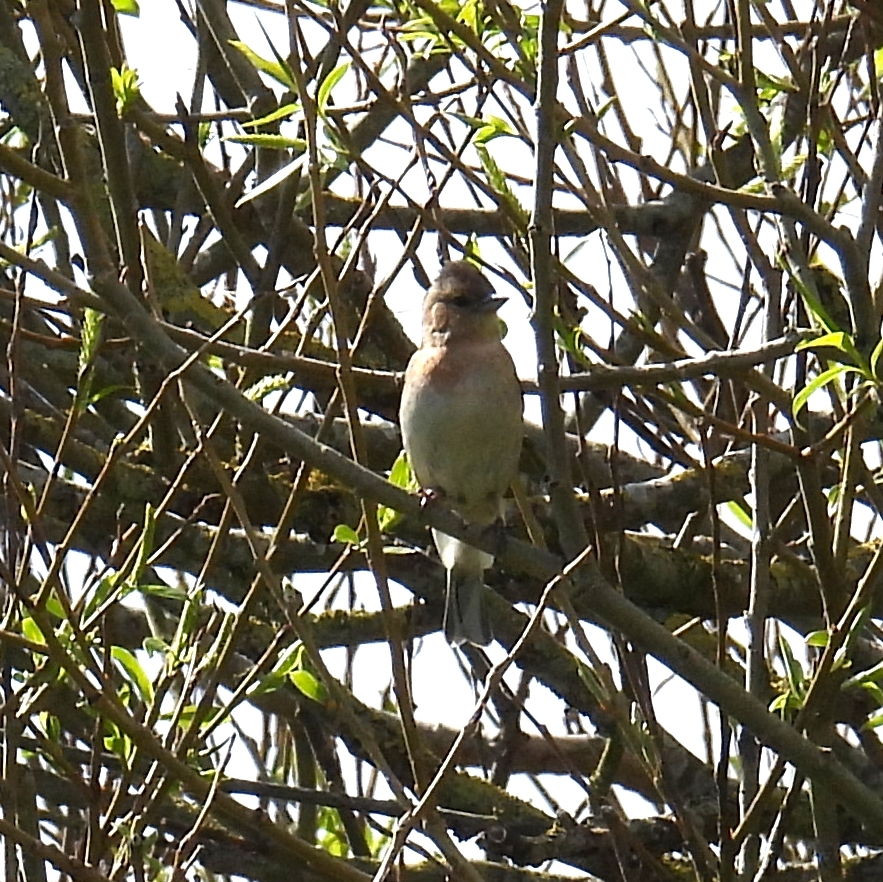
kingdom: Animalia
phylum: Chordata
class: Aves
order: Passeriformes
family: Fringillidae
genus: Fringilla
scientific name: Fringilla coelebs
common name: Common chaffinch
